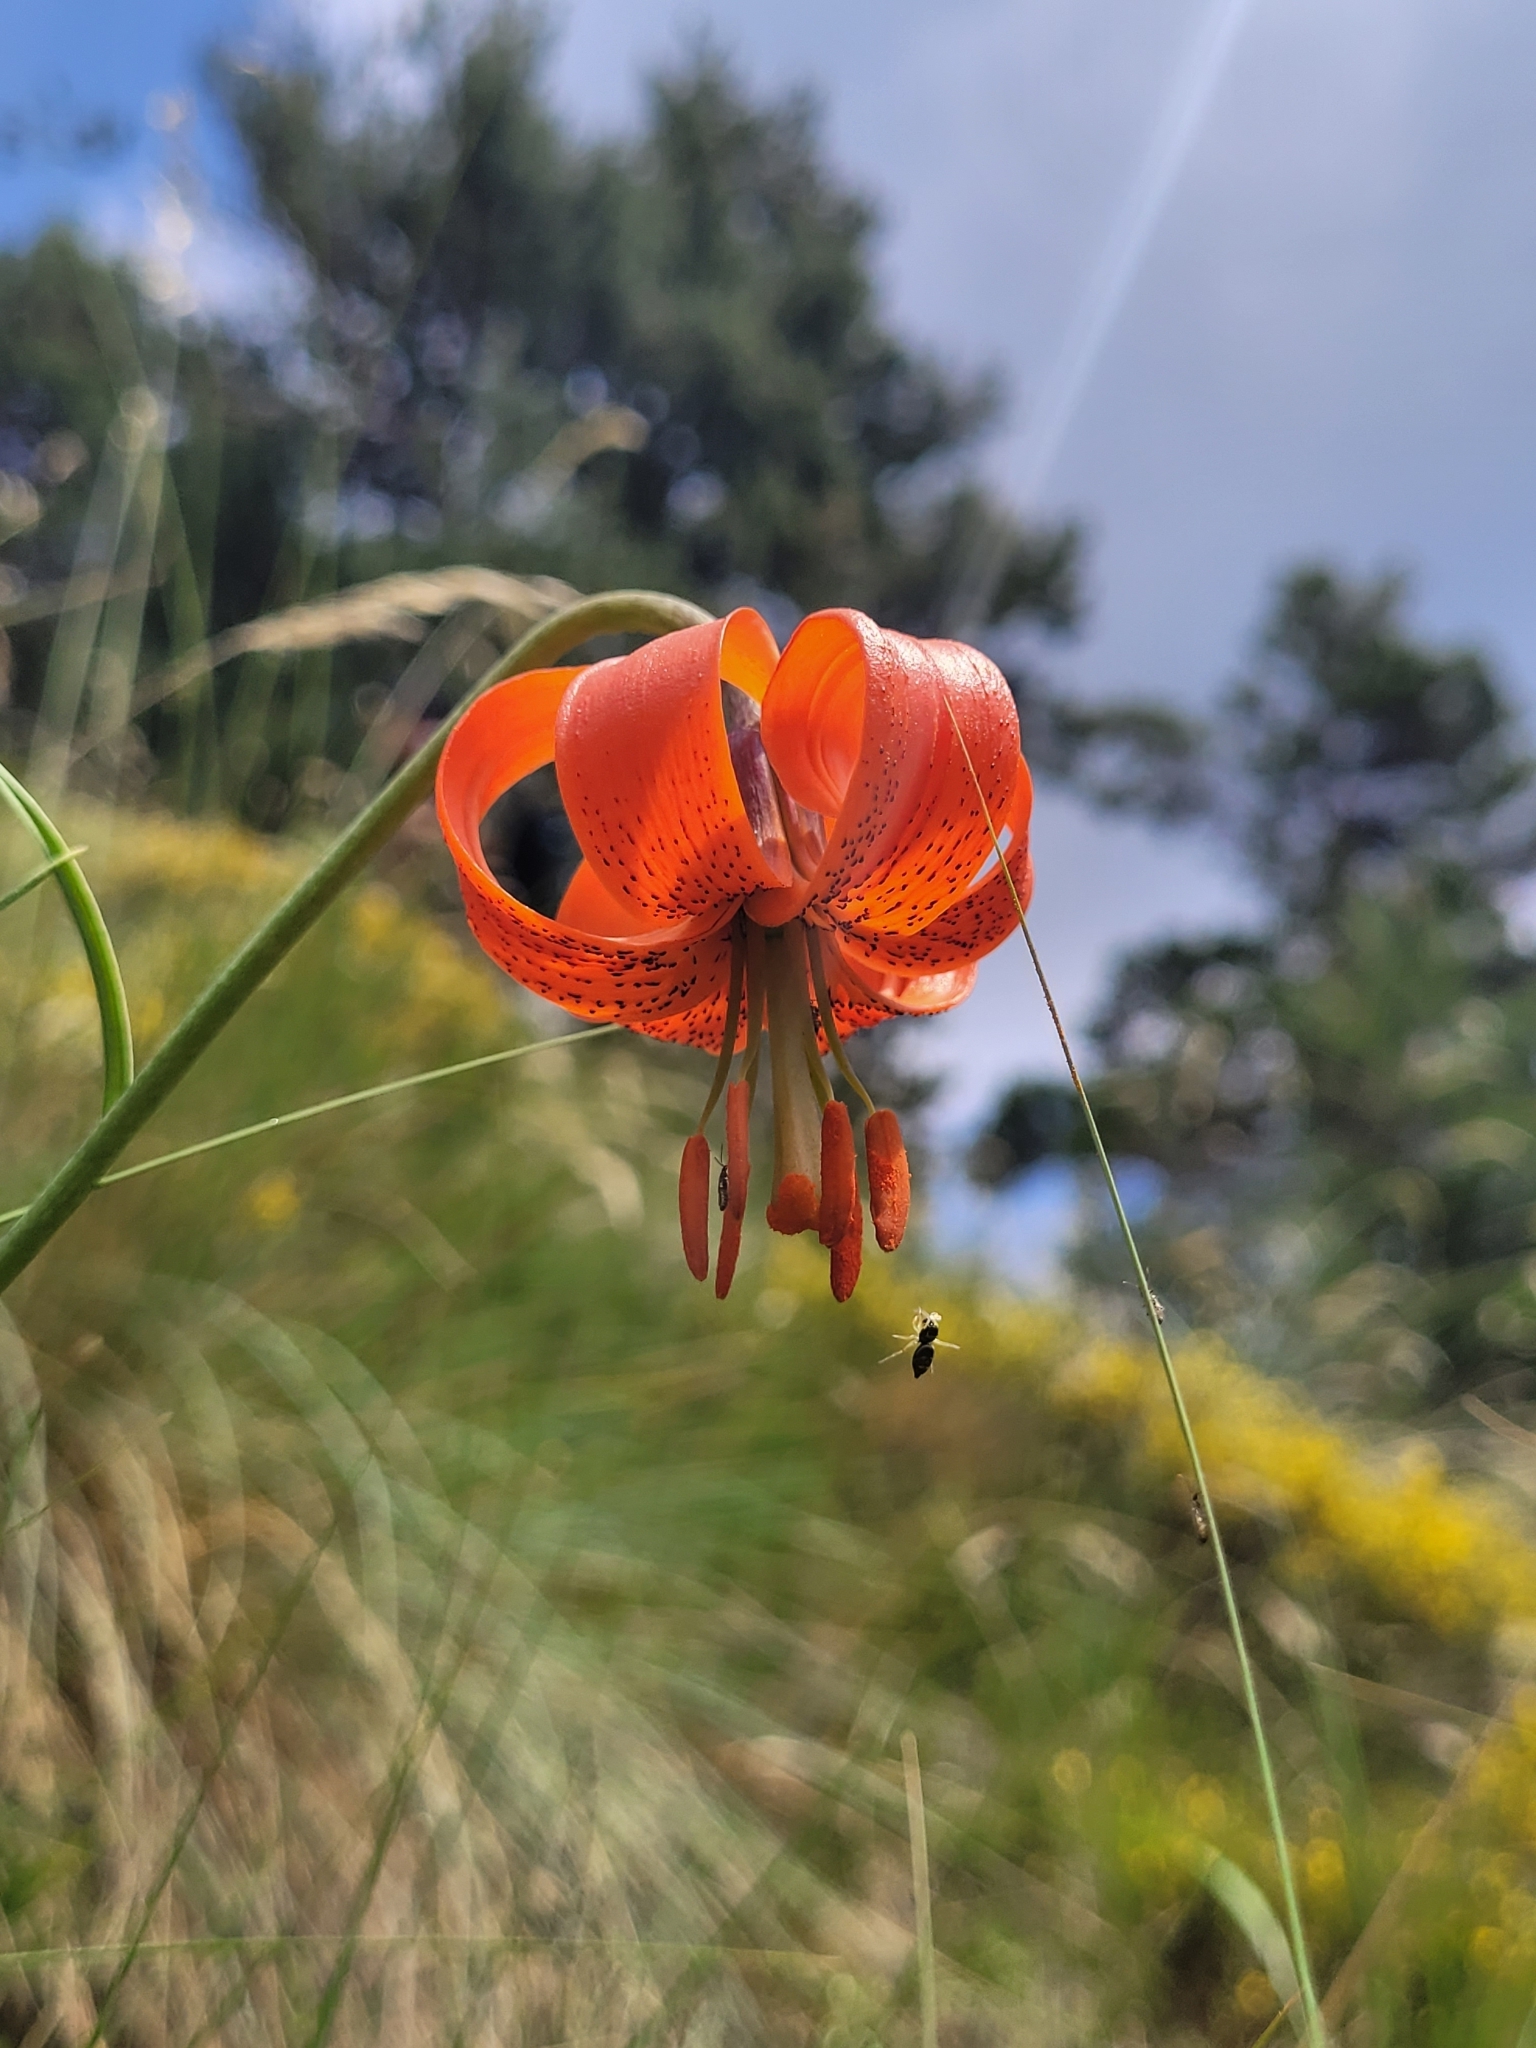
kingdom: Plantae
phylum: Tracheophyta
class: Liliopsida
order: Liliales
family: Liliaceae
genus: Lilium
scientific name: Lilium pomponium
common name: Minor turk's-cap lily
